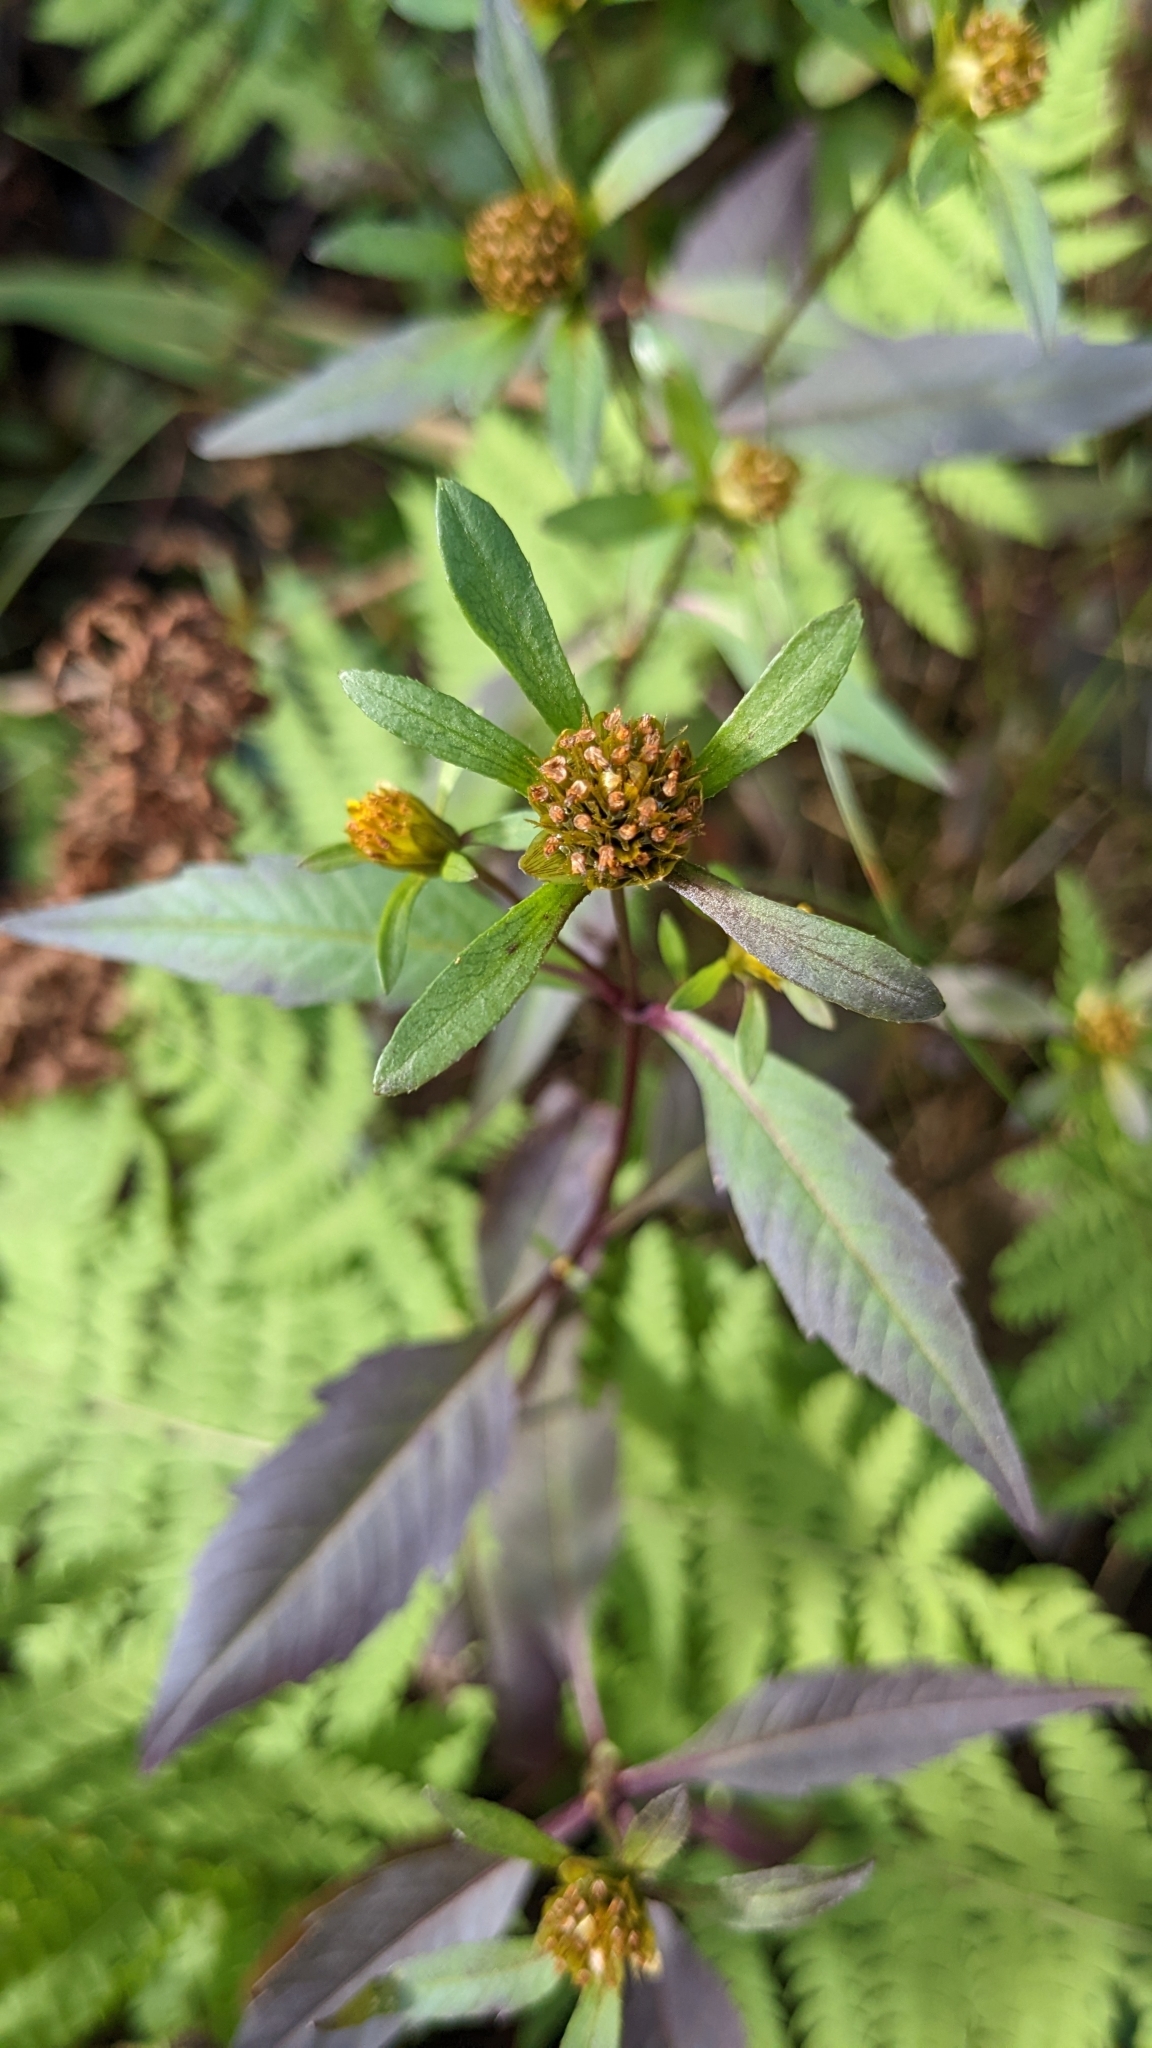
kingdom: Plantae
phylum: Tracheophyta
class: Magnoliopsida
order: Asterales
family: Asteraceae
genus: Bidens
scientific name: Bidens connata
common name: London bur-marigold
